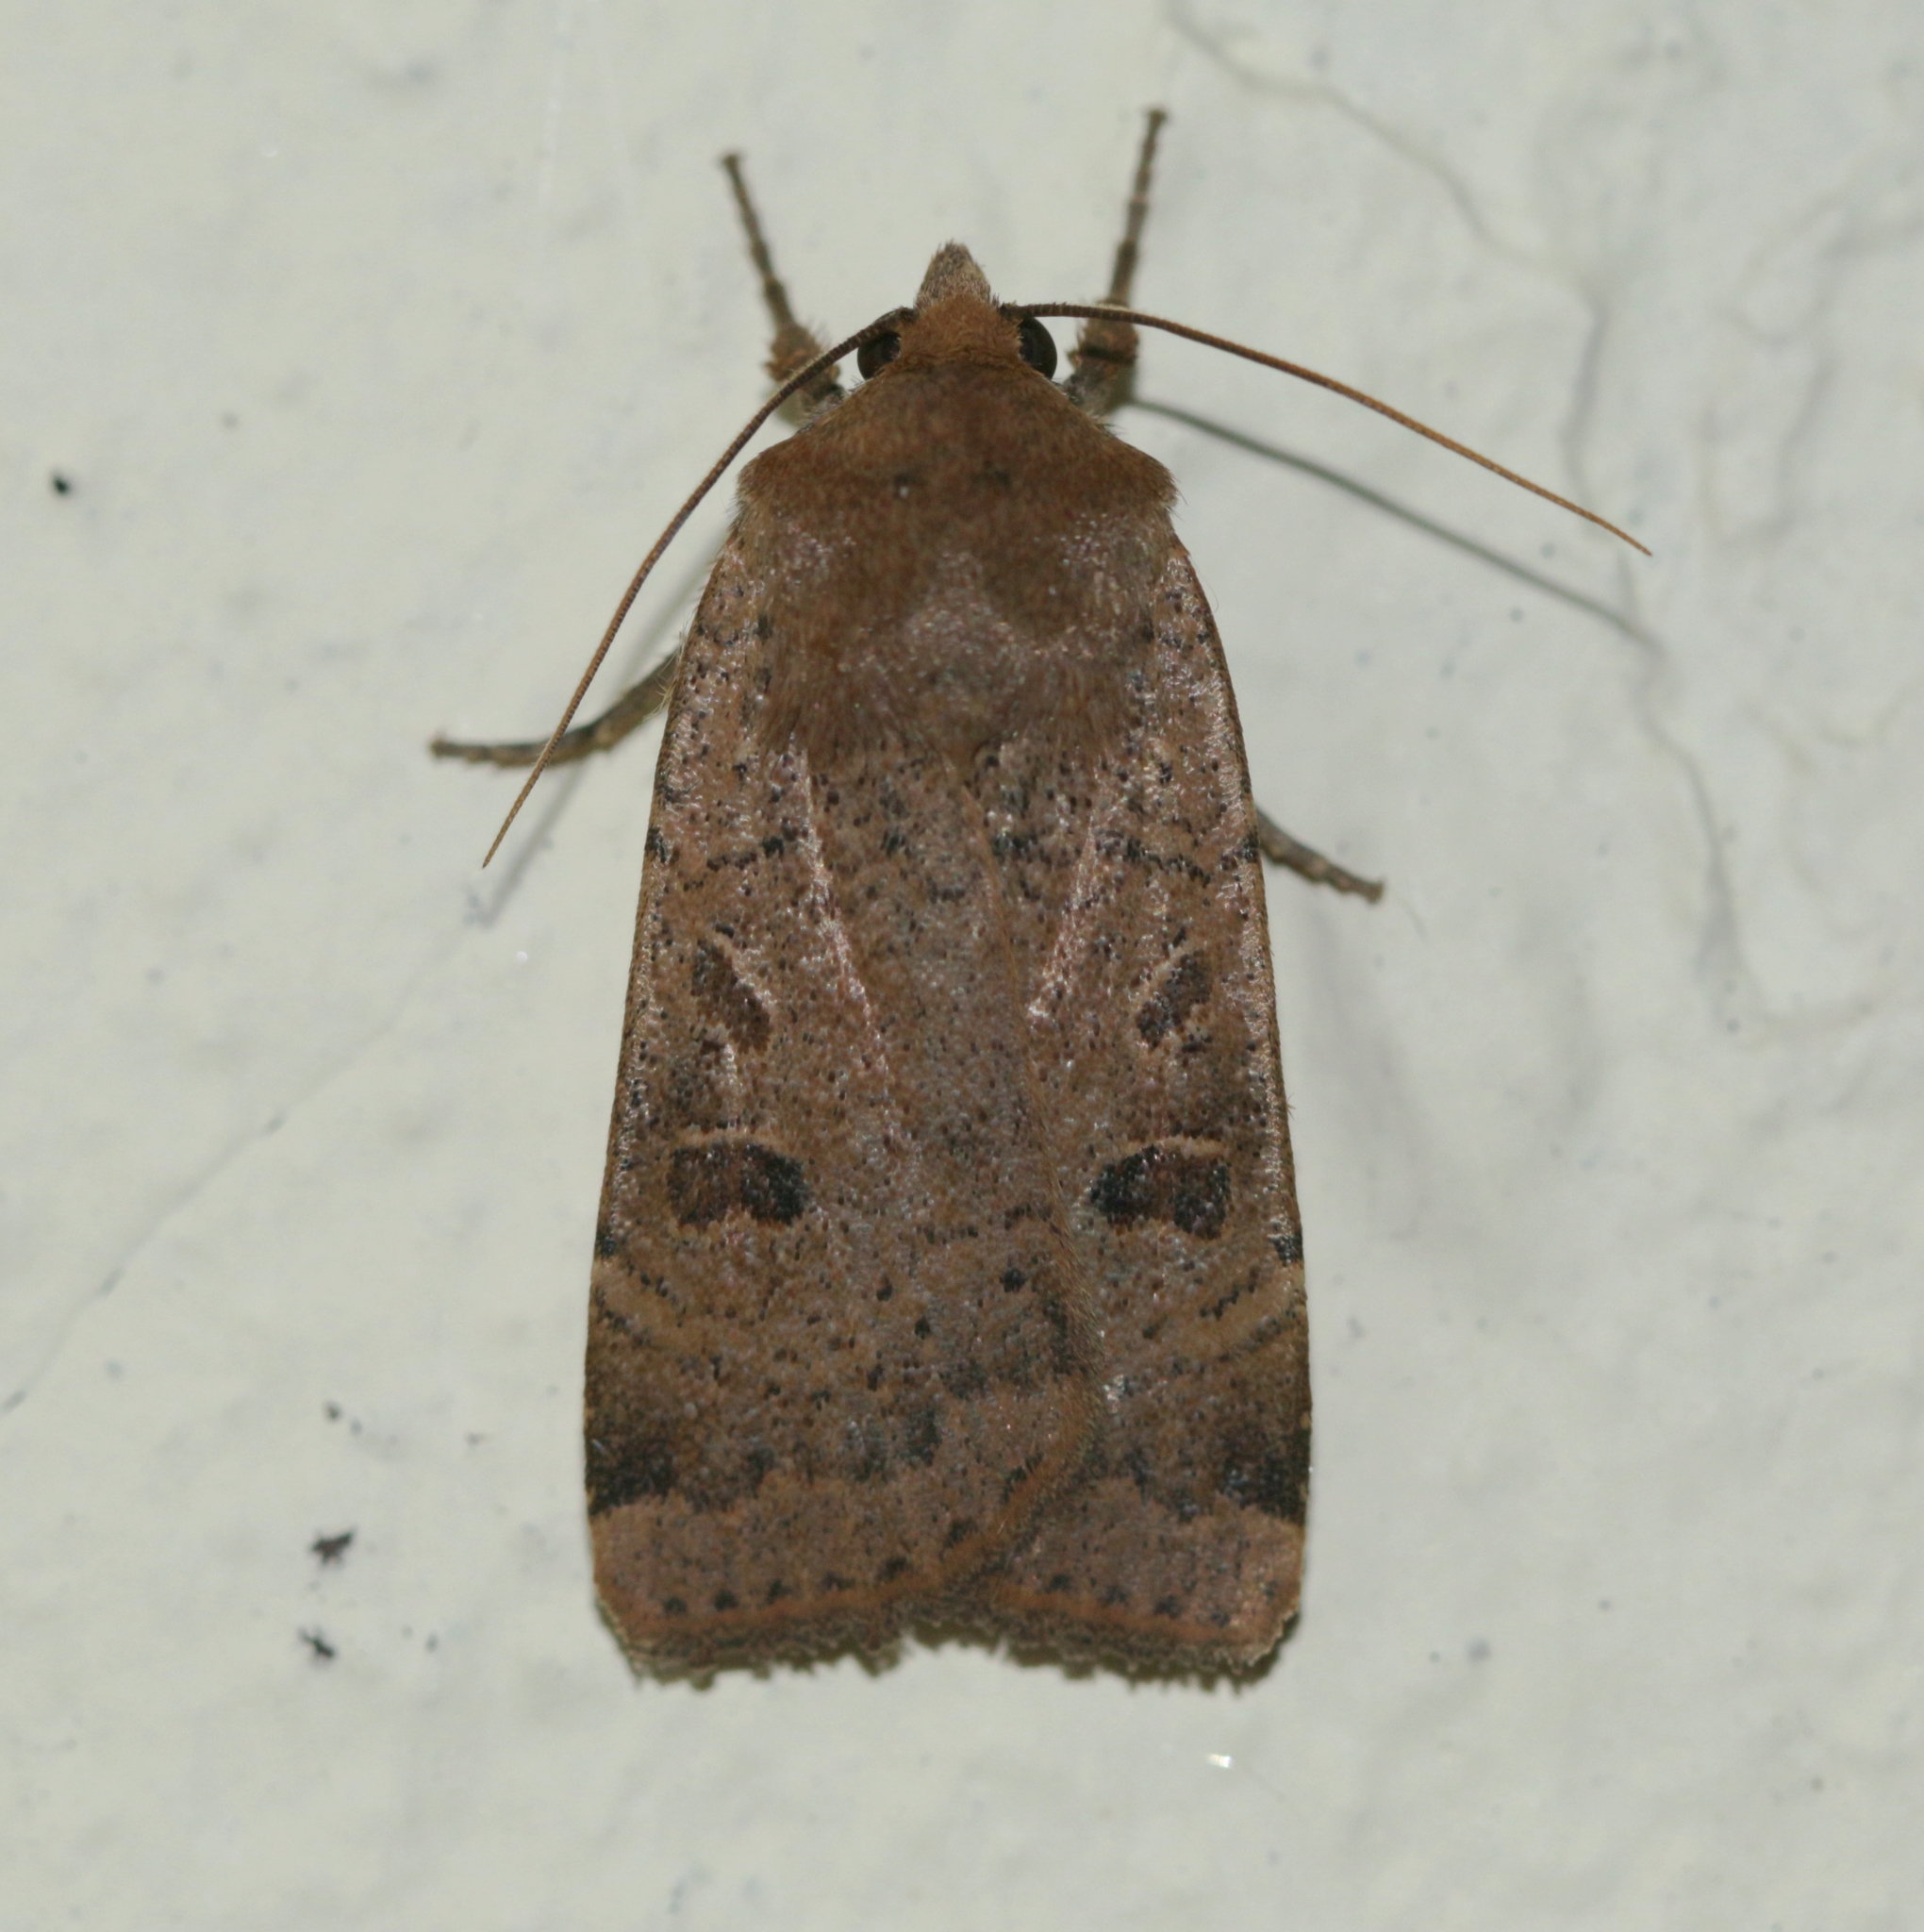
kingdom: Animalia
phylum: Arthropoda
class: Insecta
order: Lepidoptera
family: Noctuidae
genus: Noctua
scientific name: Noctua comes
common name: Lesser yellow underwing
